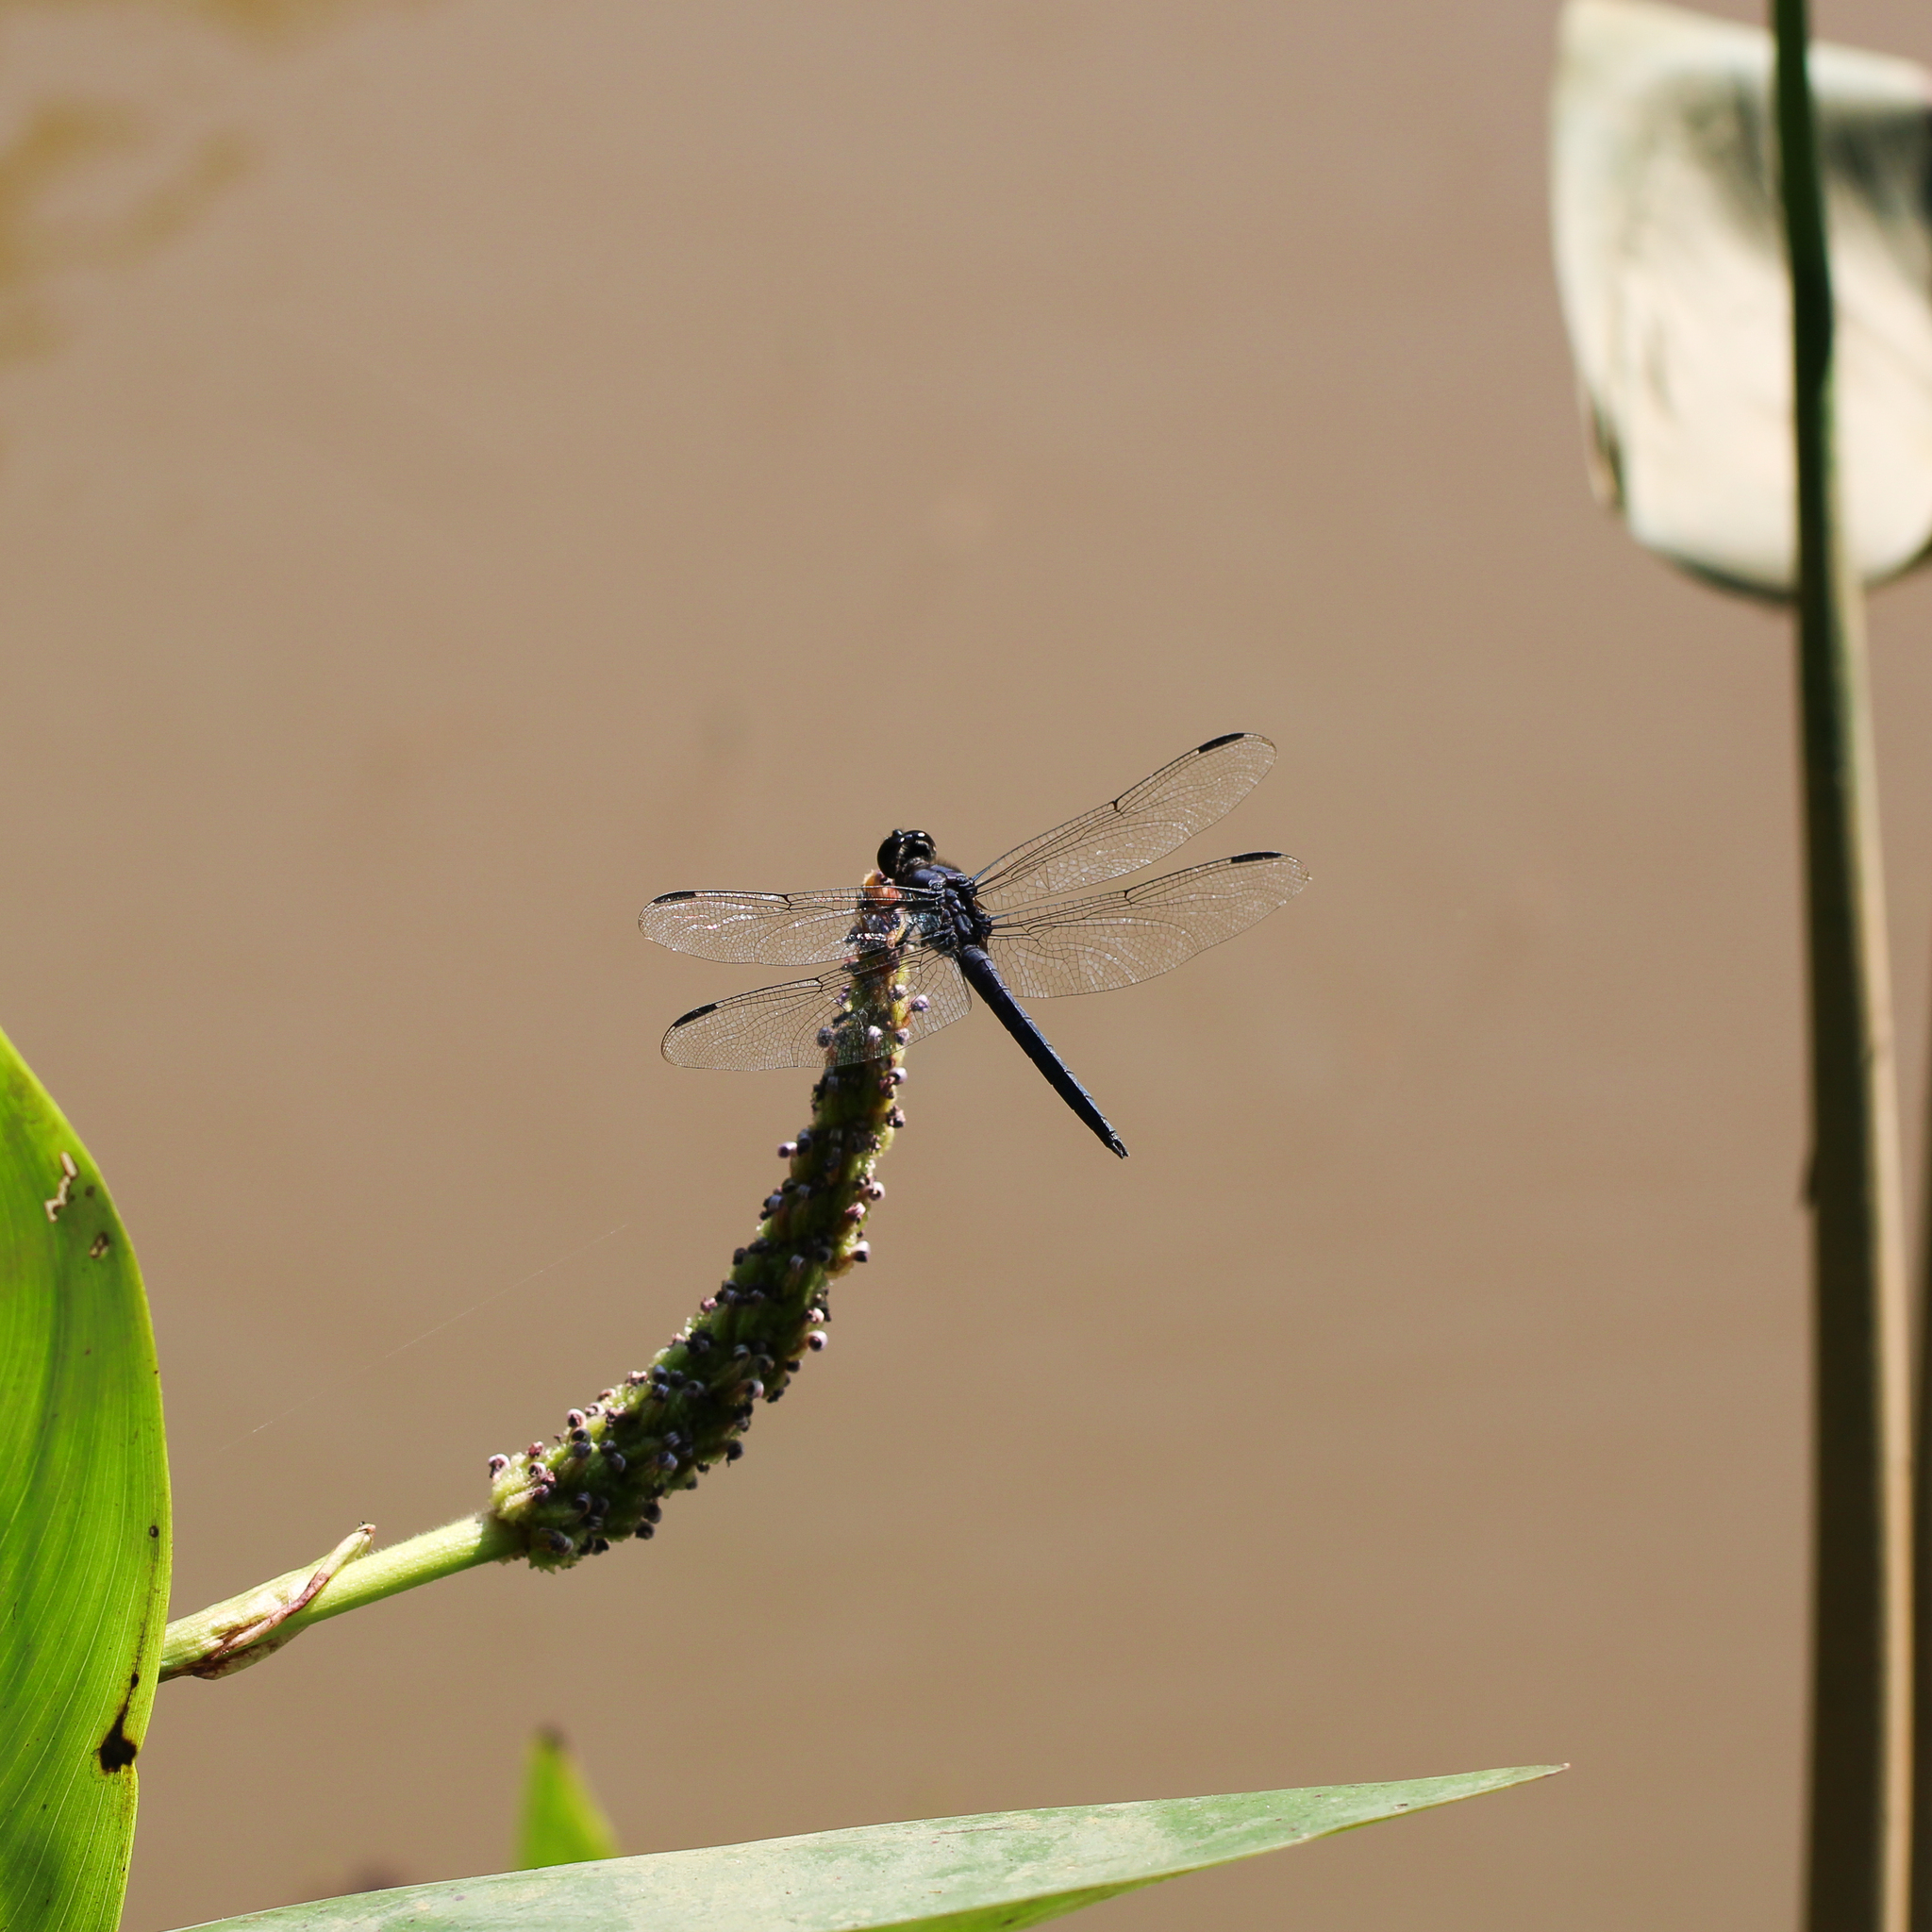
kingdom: Animalia
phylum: Arthropoda
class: Insecta
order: Odonata
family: Libellulidae
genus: Libellula
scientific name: Libellula incesta
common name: Slaty skimmer
